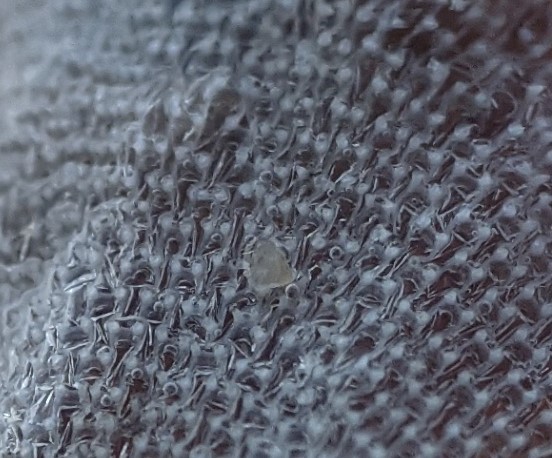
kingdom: Animalia
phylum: Bryozoa
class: Gymnolaemata
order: Cheilostomatida
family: Membraniporidae
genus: Membranipora
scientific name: Membranipora membranacea
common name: Sea mat
